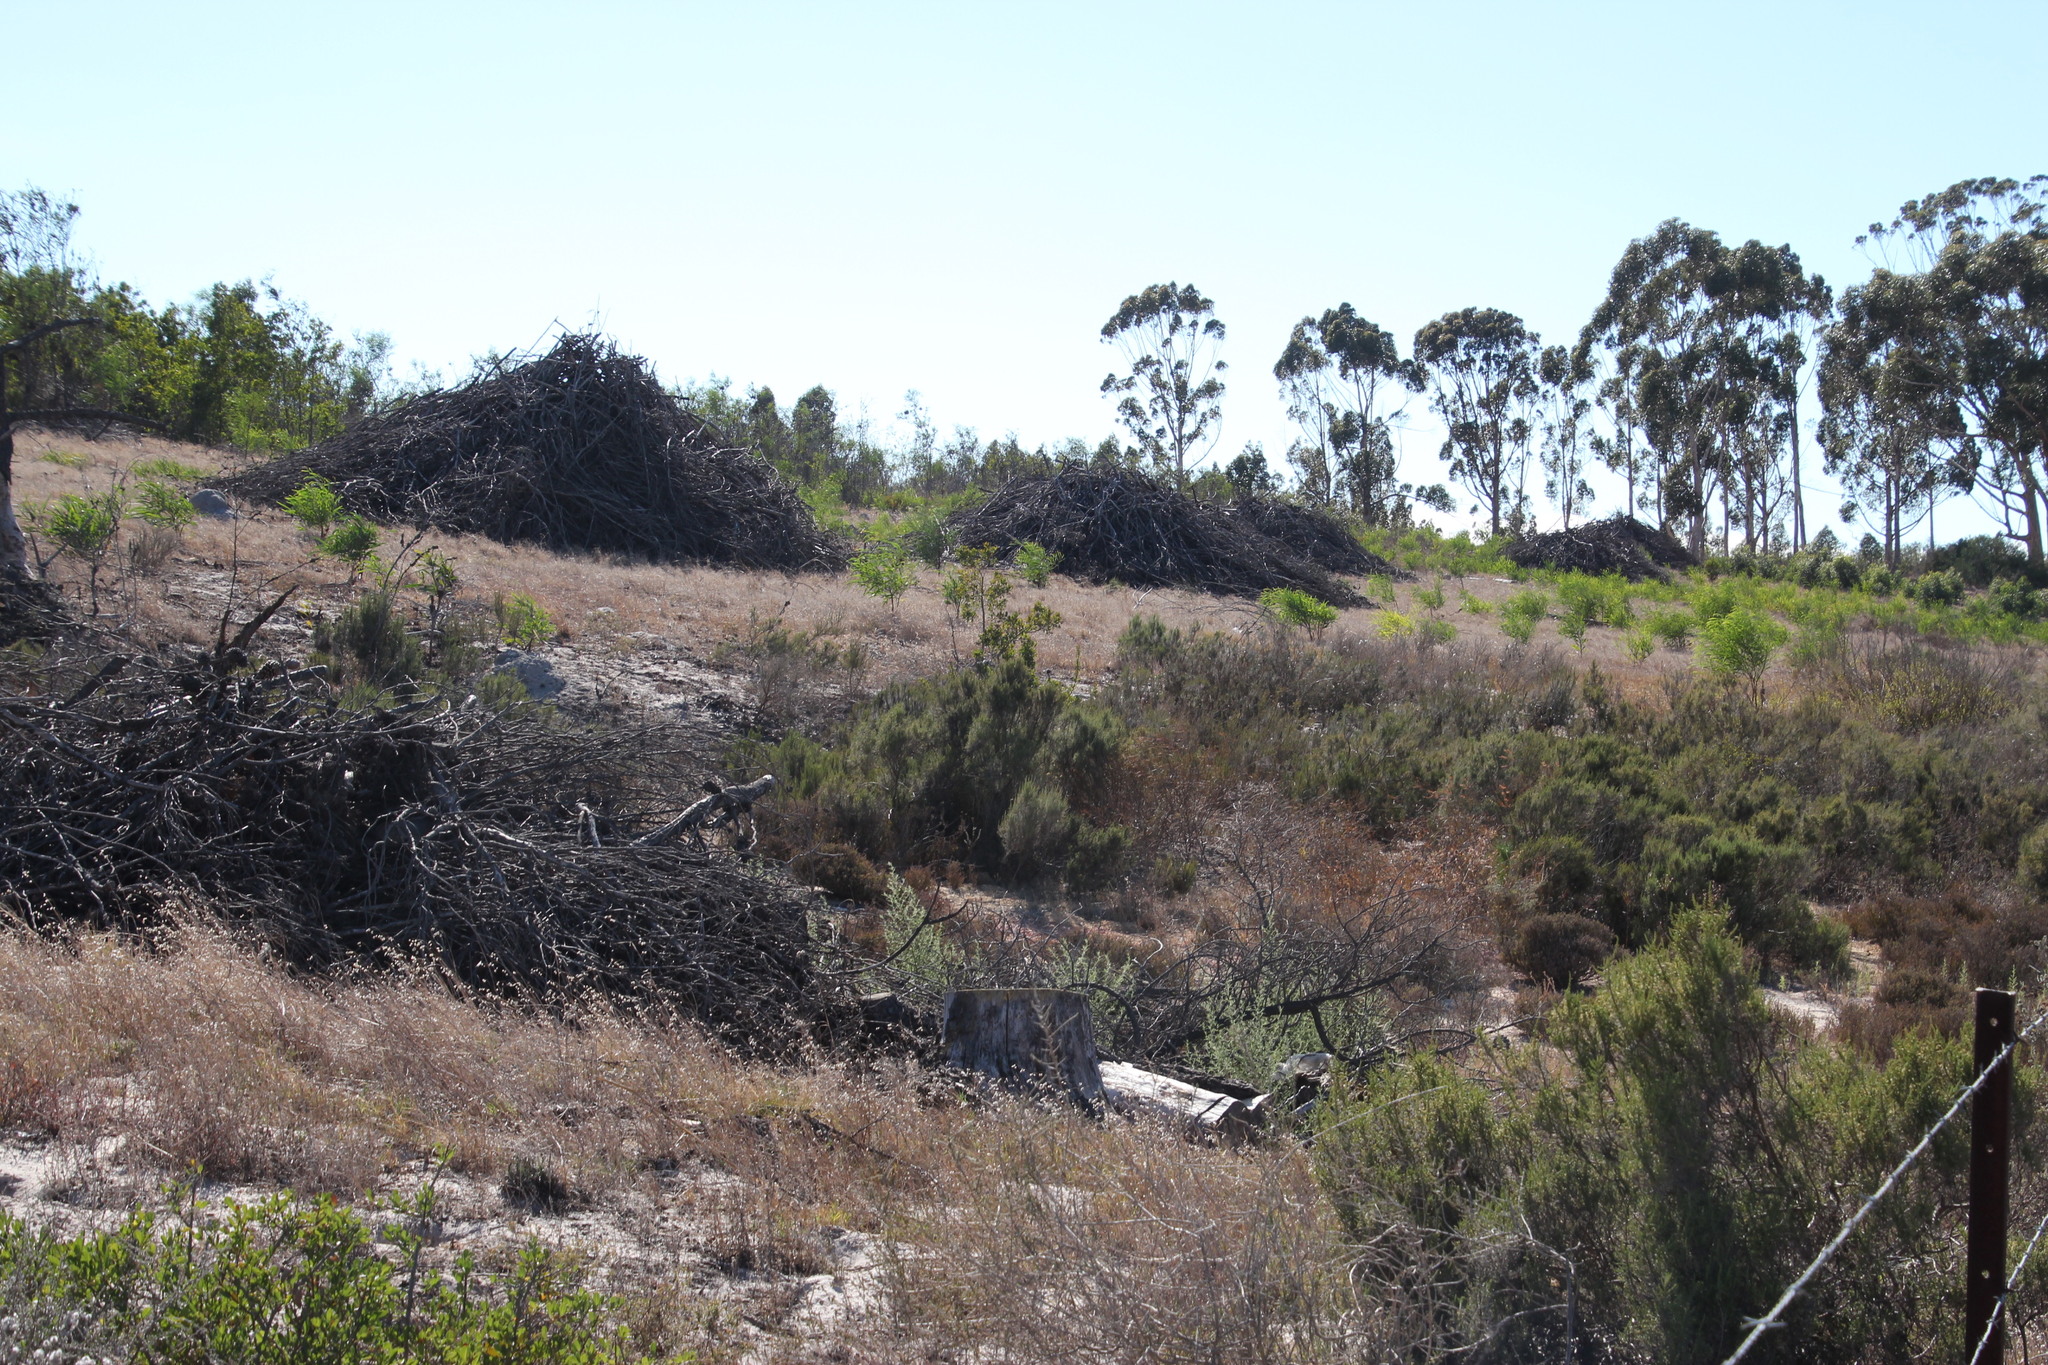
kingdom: Plantae
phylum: Tracheophyta
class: Magnoliopsida
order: Fabales
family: Fabaceae
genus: Acacia
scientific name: Acacia saligna
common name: Orange wattle
